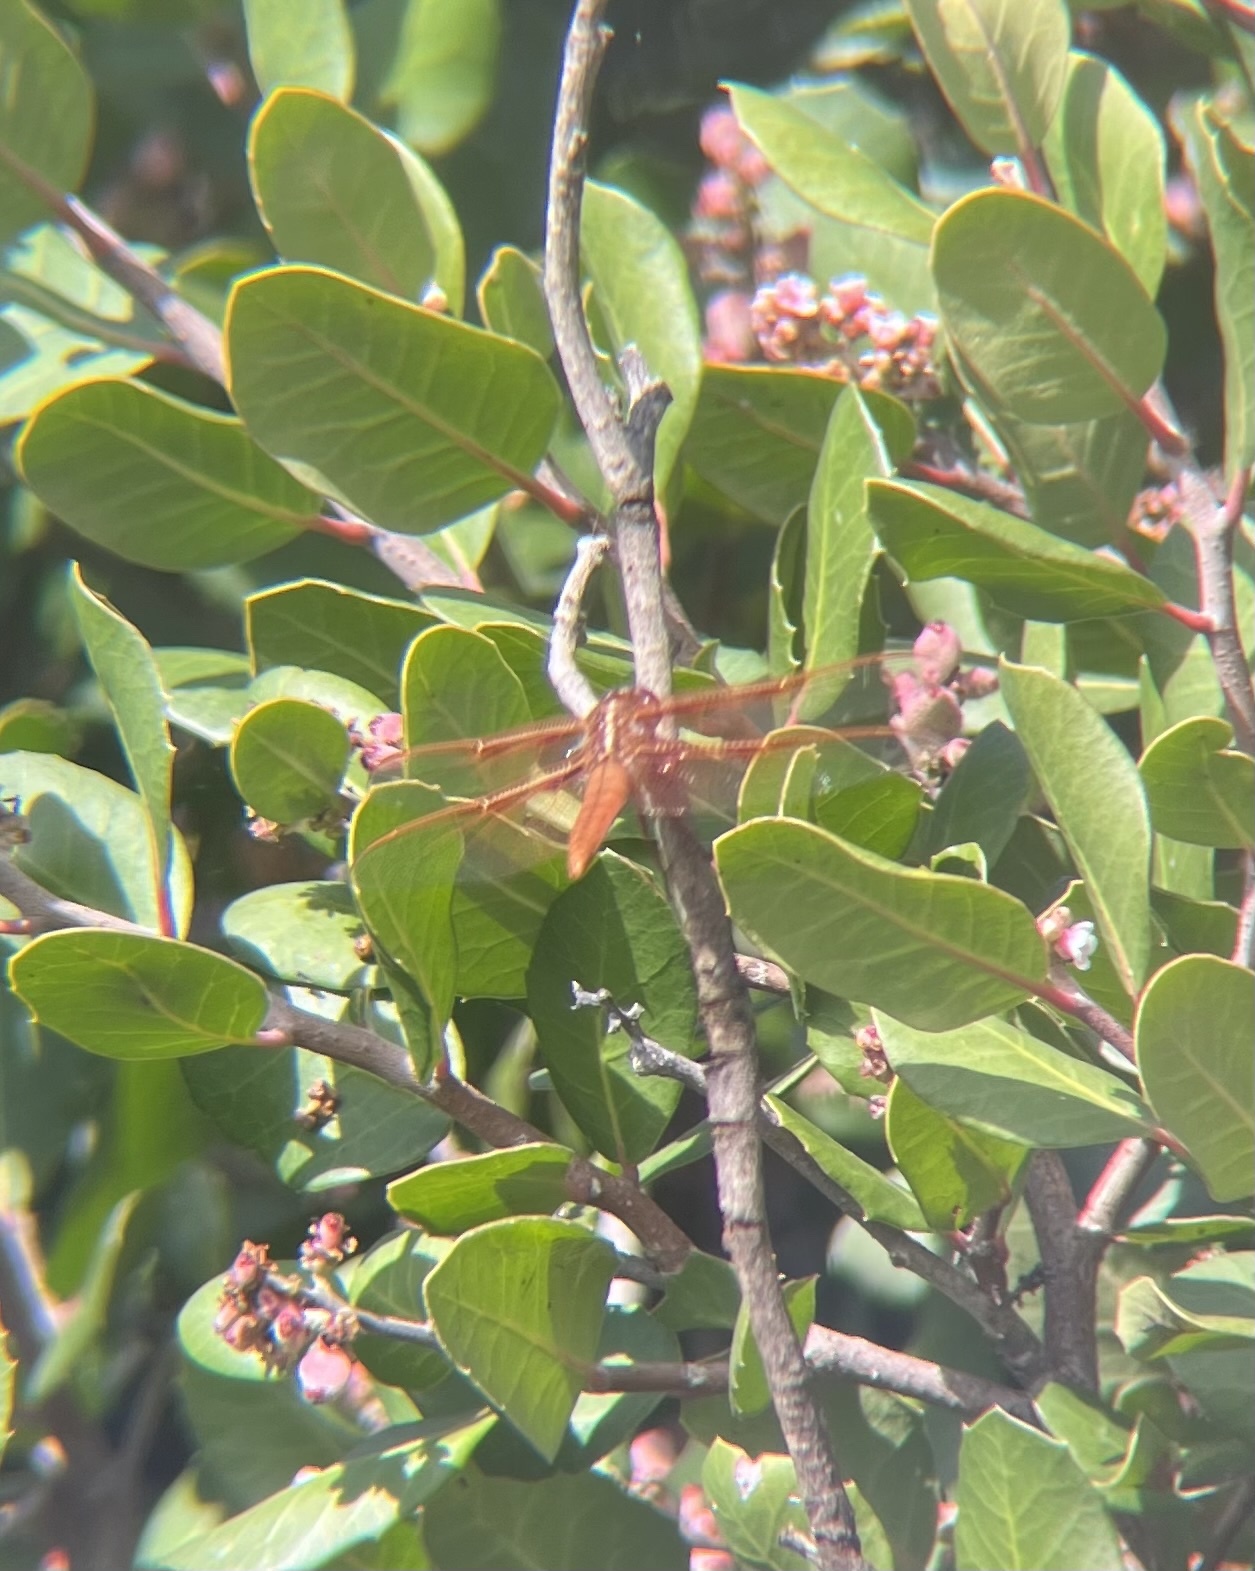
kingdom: Animalia
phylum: Arthropoda
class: Insecta
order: Odonata
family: Libellulidae
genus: Libellula
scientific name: Libellula saturata
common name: Flame skimmer
